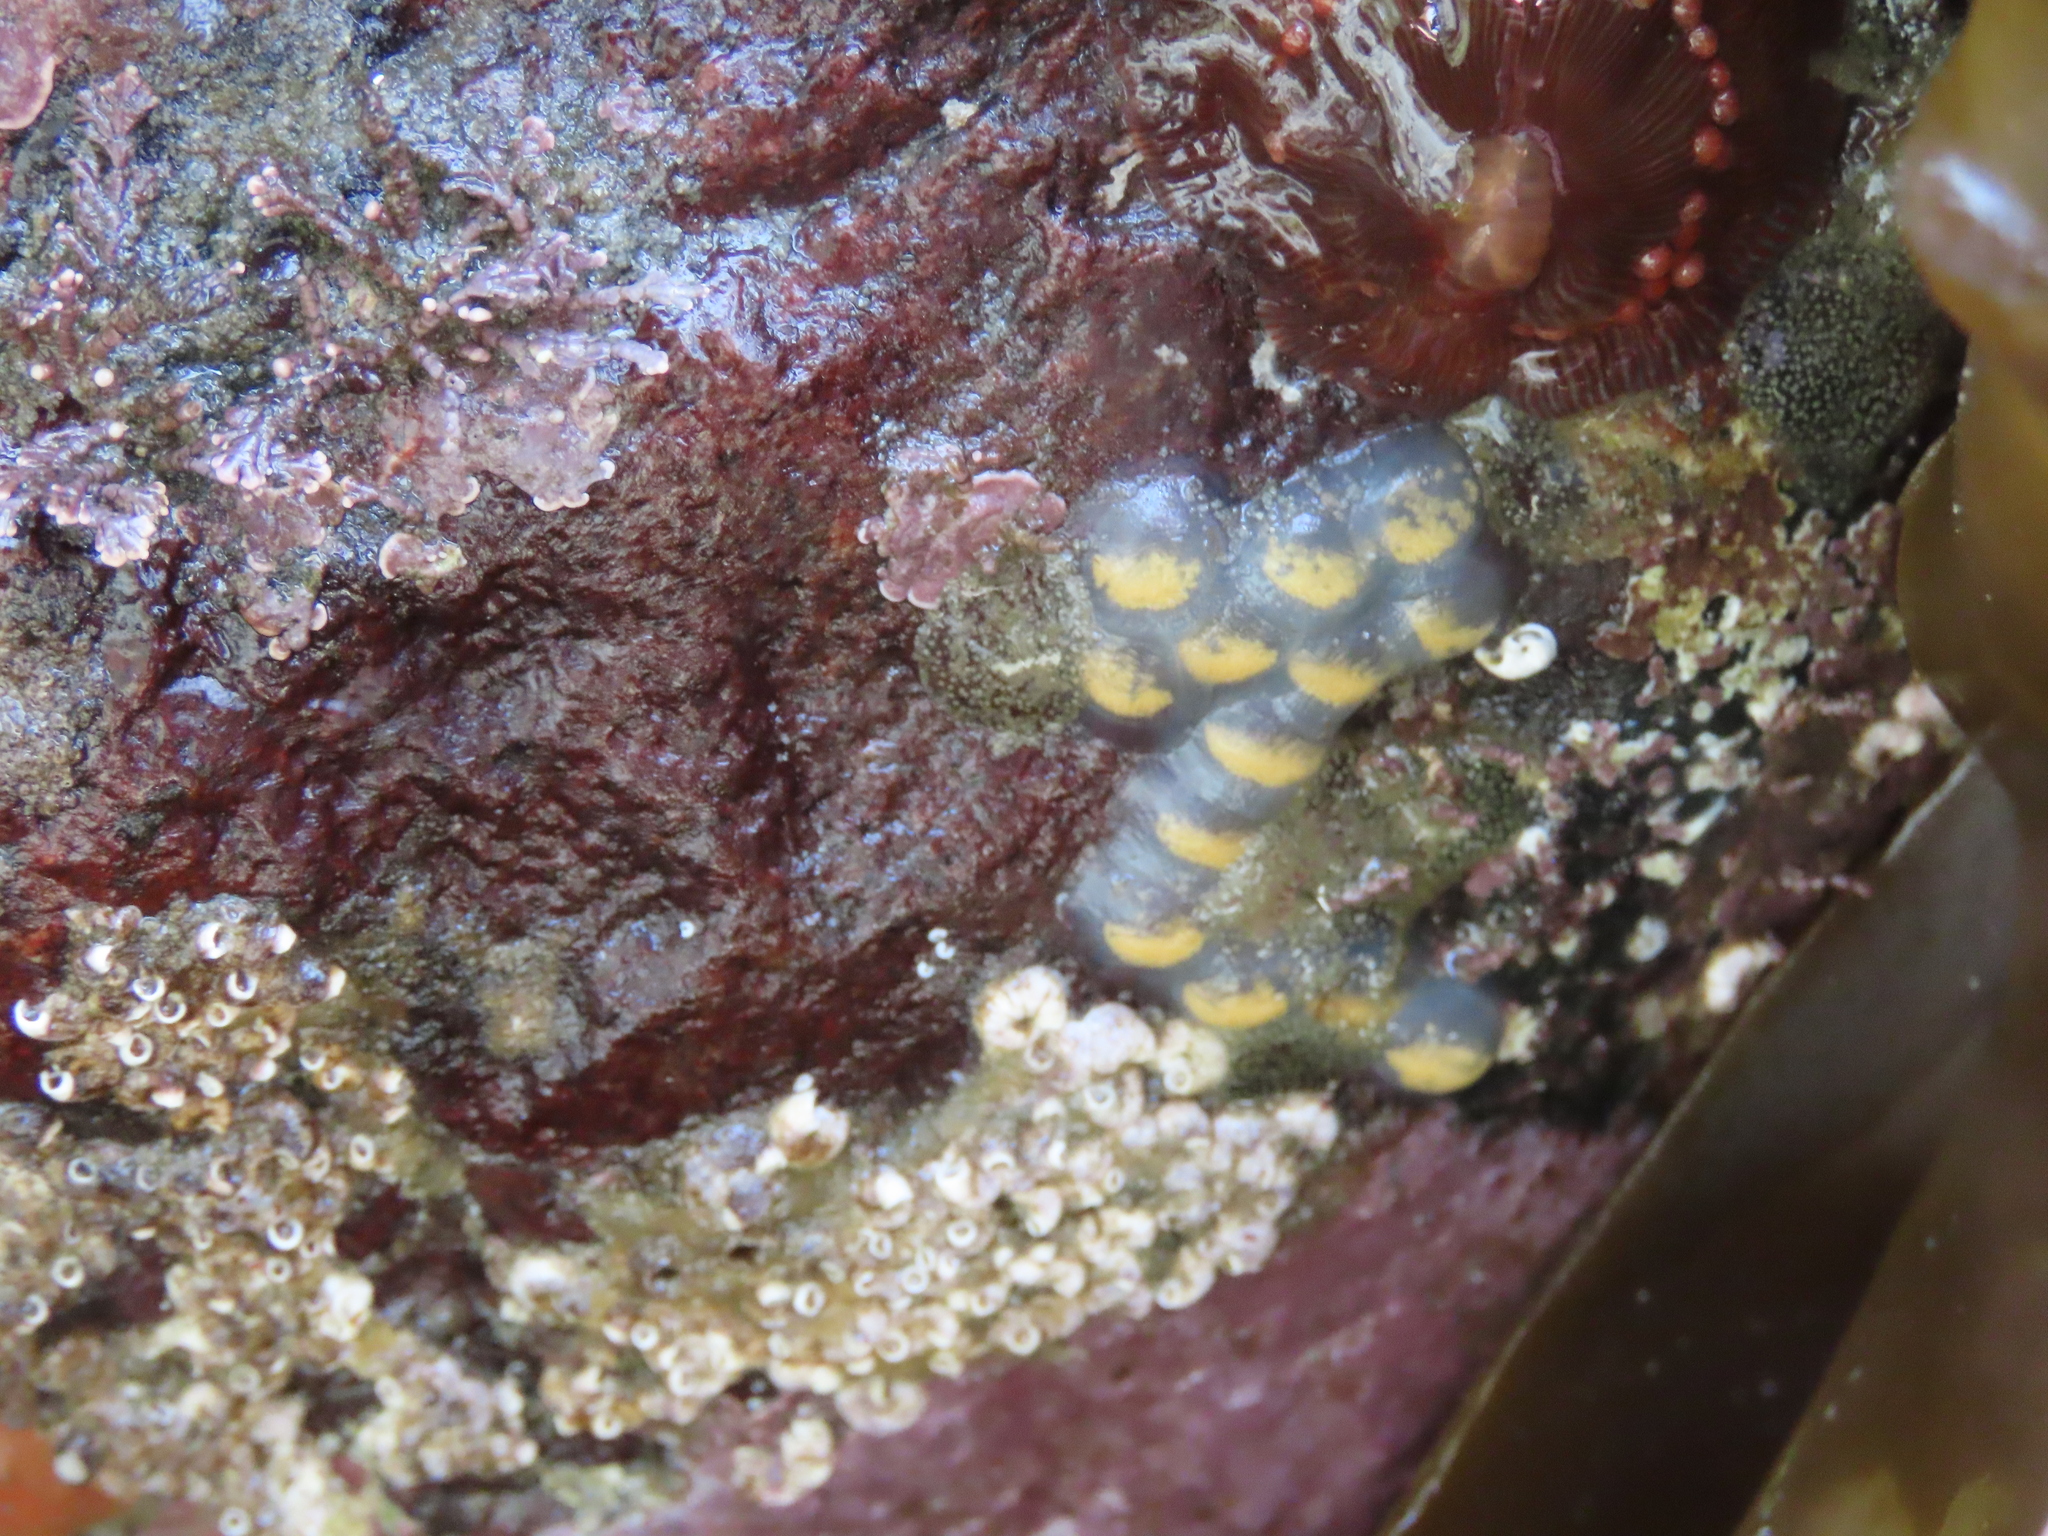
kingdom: Animalia
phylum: Mollusca
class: Gastropoda
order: Neogastropoda
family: Tudiclidae
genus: Lirabuccinum
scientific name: Lirabuccinum dirum
